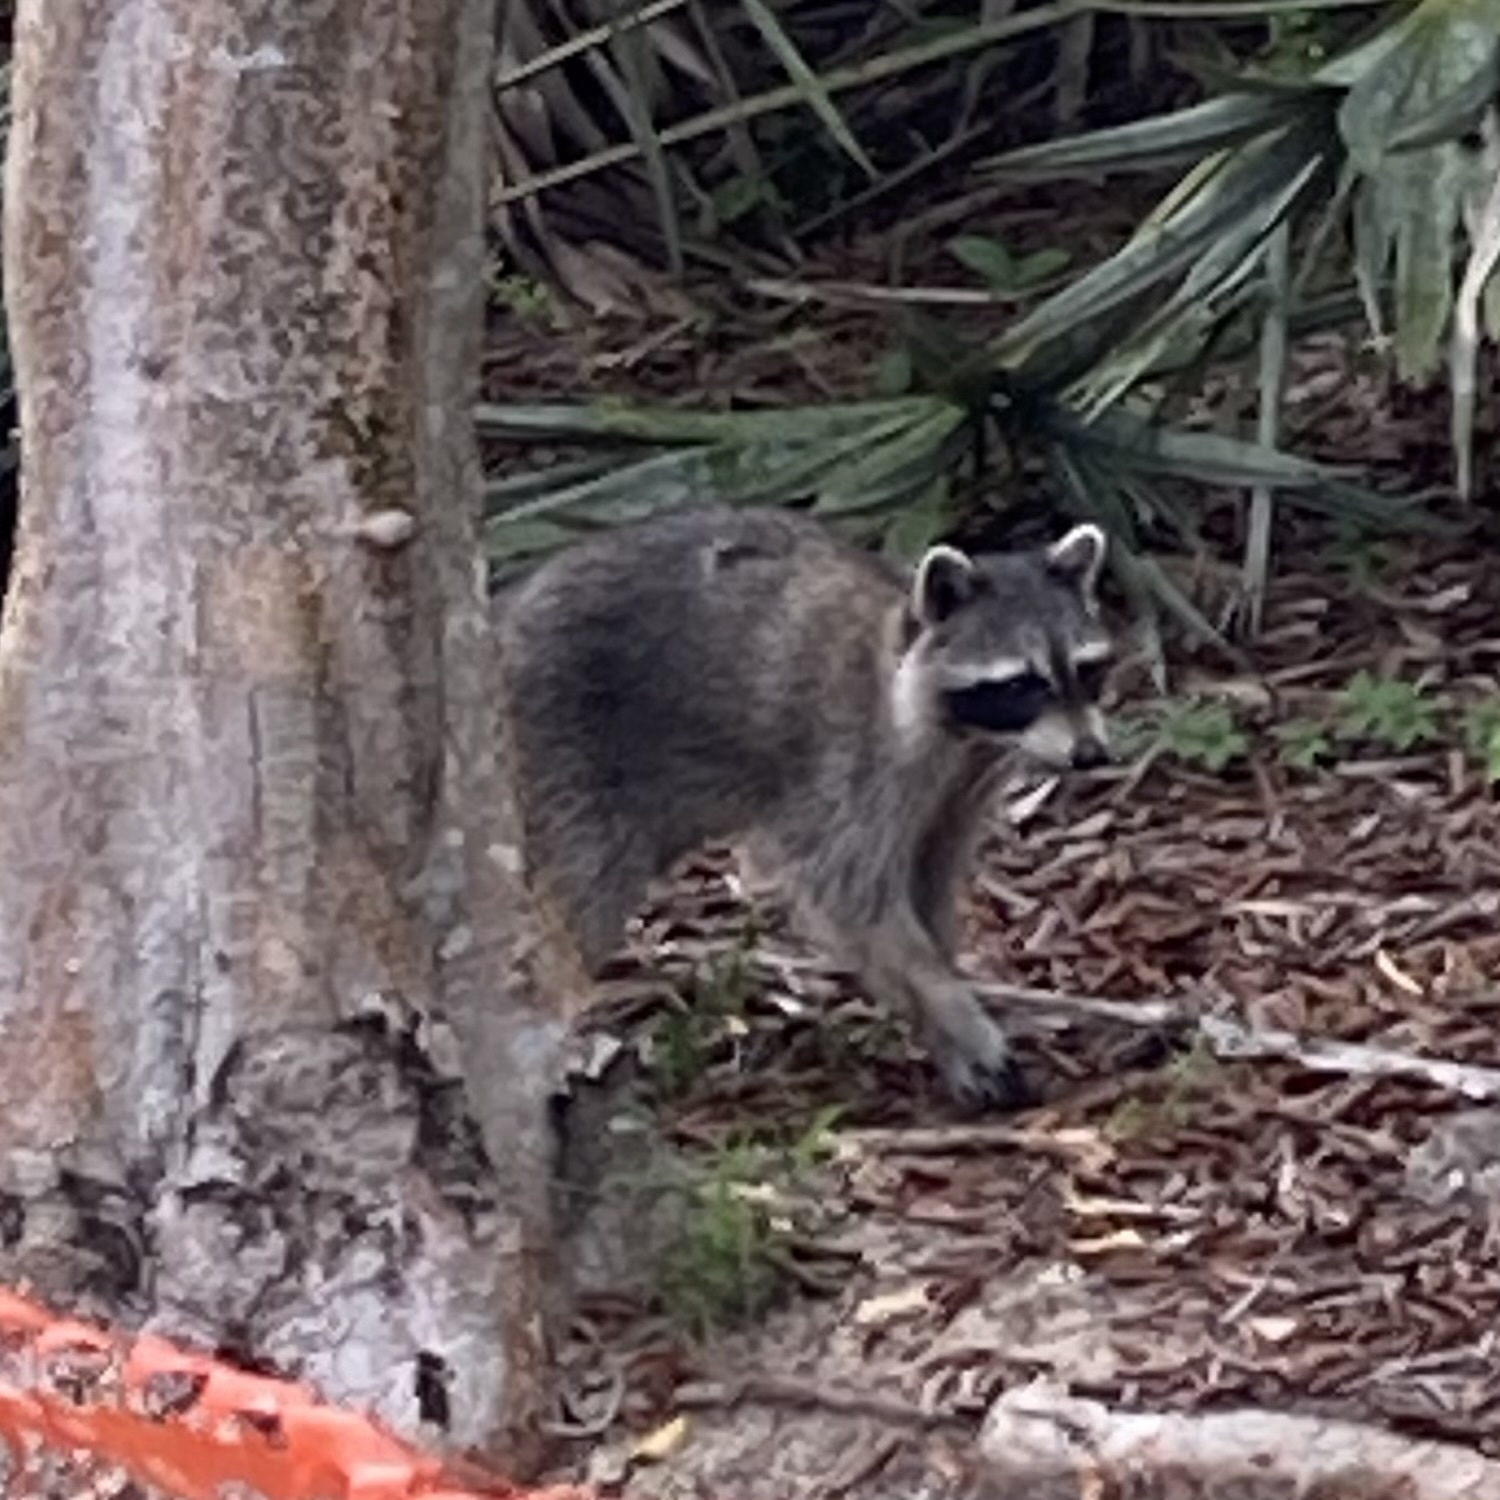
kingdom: Animalia
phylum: Chordata
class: Mammalia
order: Carnivora
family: Procyonidae
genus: Procyon
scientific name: Procyon lotor
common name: Raccoon
